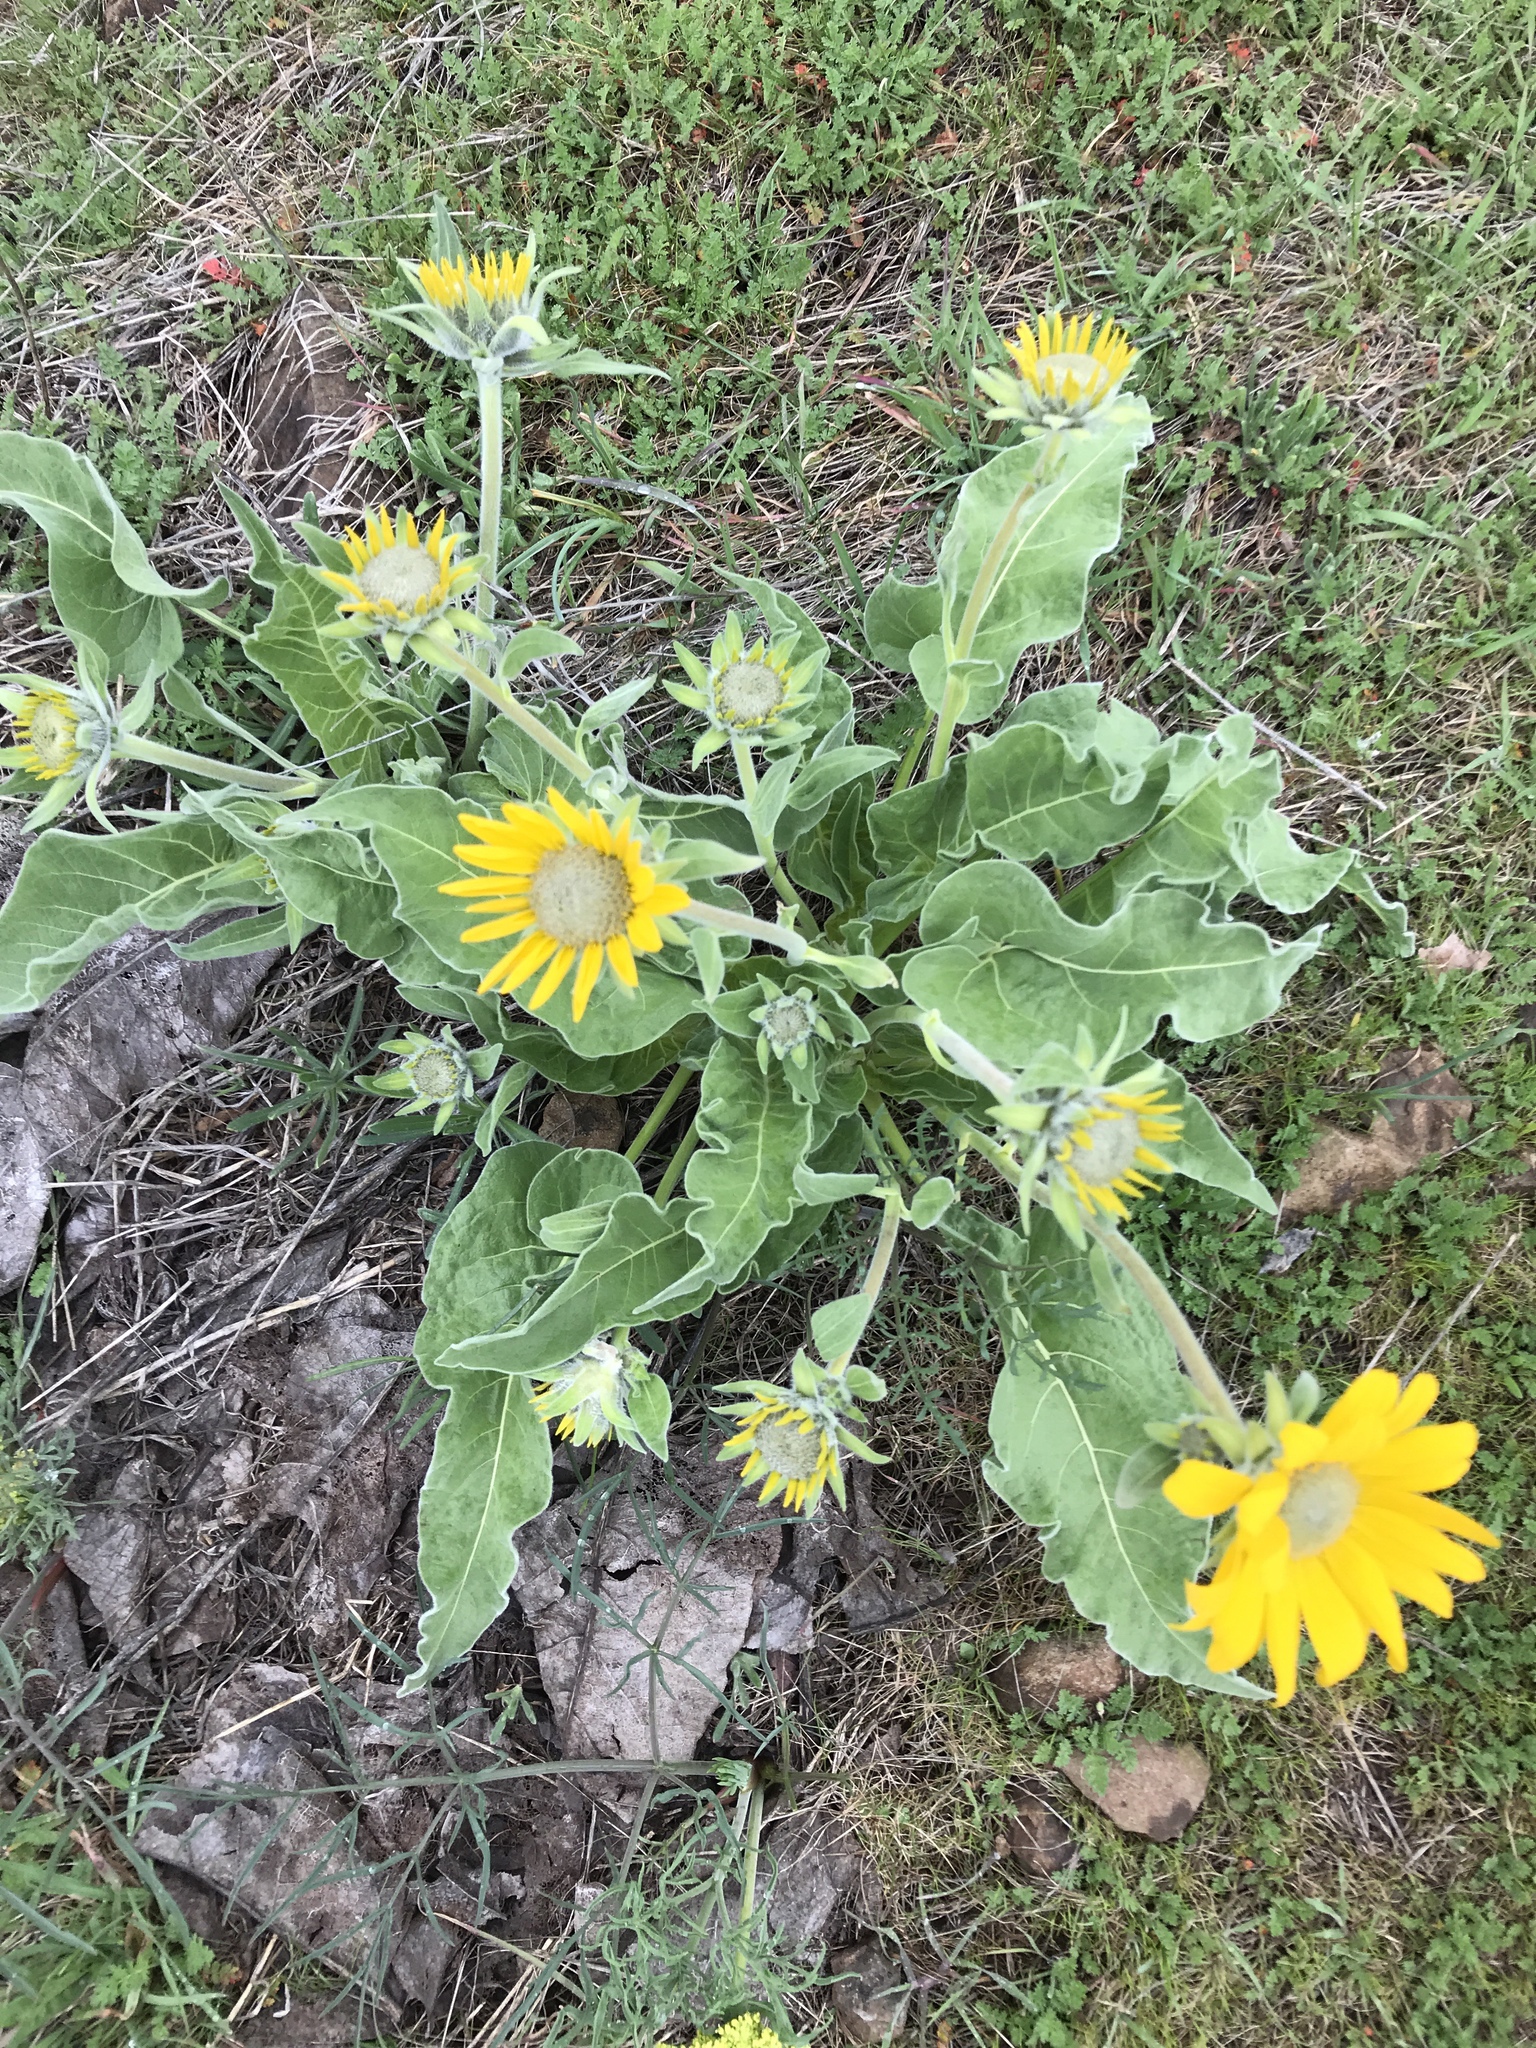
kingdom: Plantae
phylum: Tracheophyta
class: Magnoliopsida
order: Asterales
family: Asteraceae
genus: Wyethia
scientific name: Wyethia sagittata
